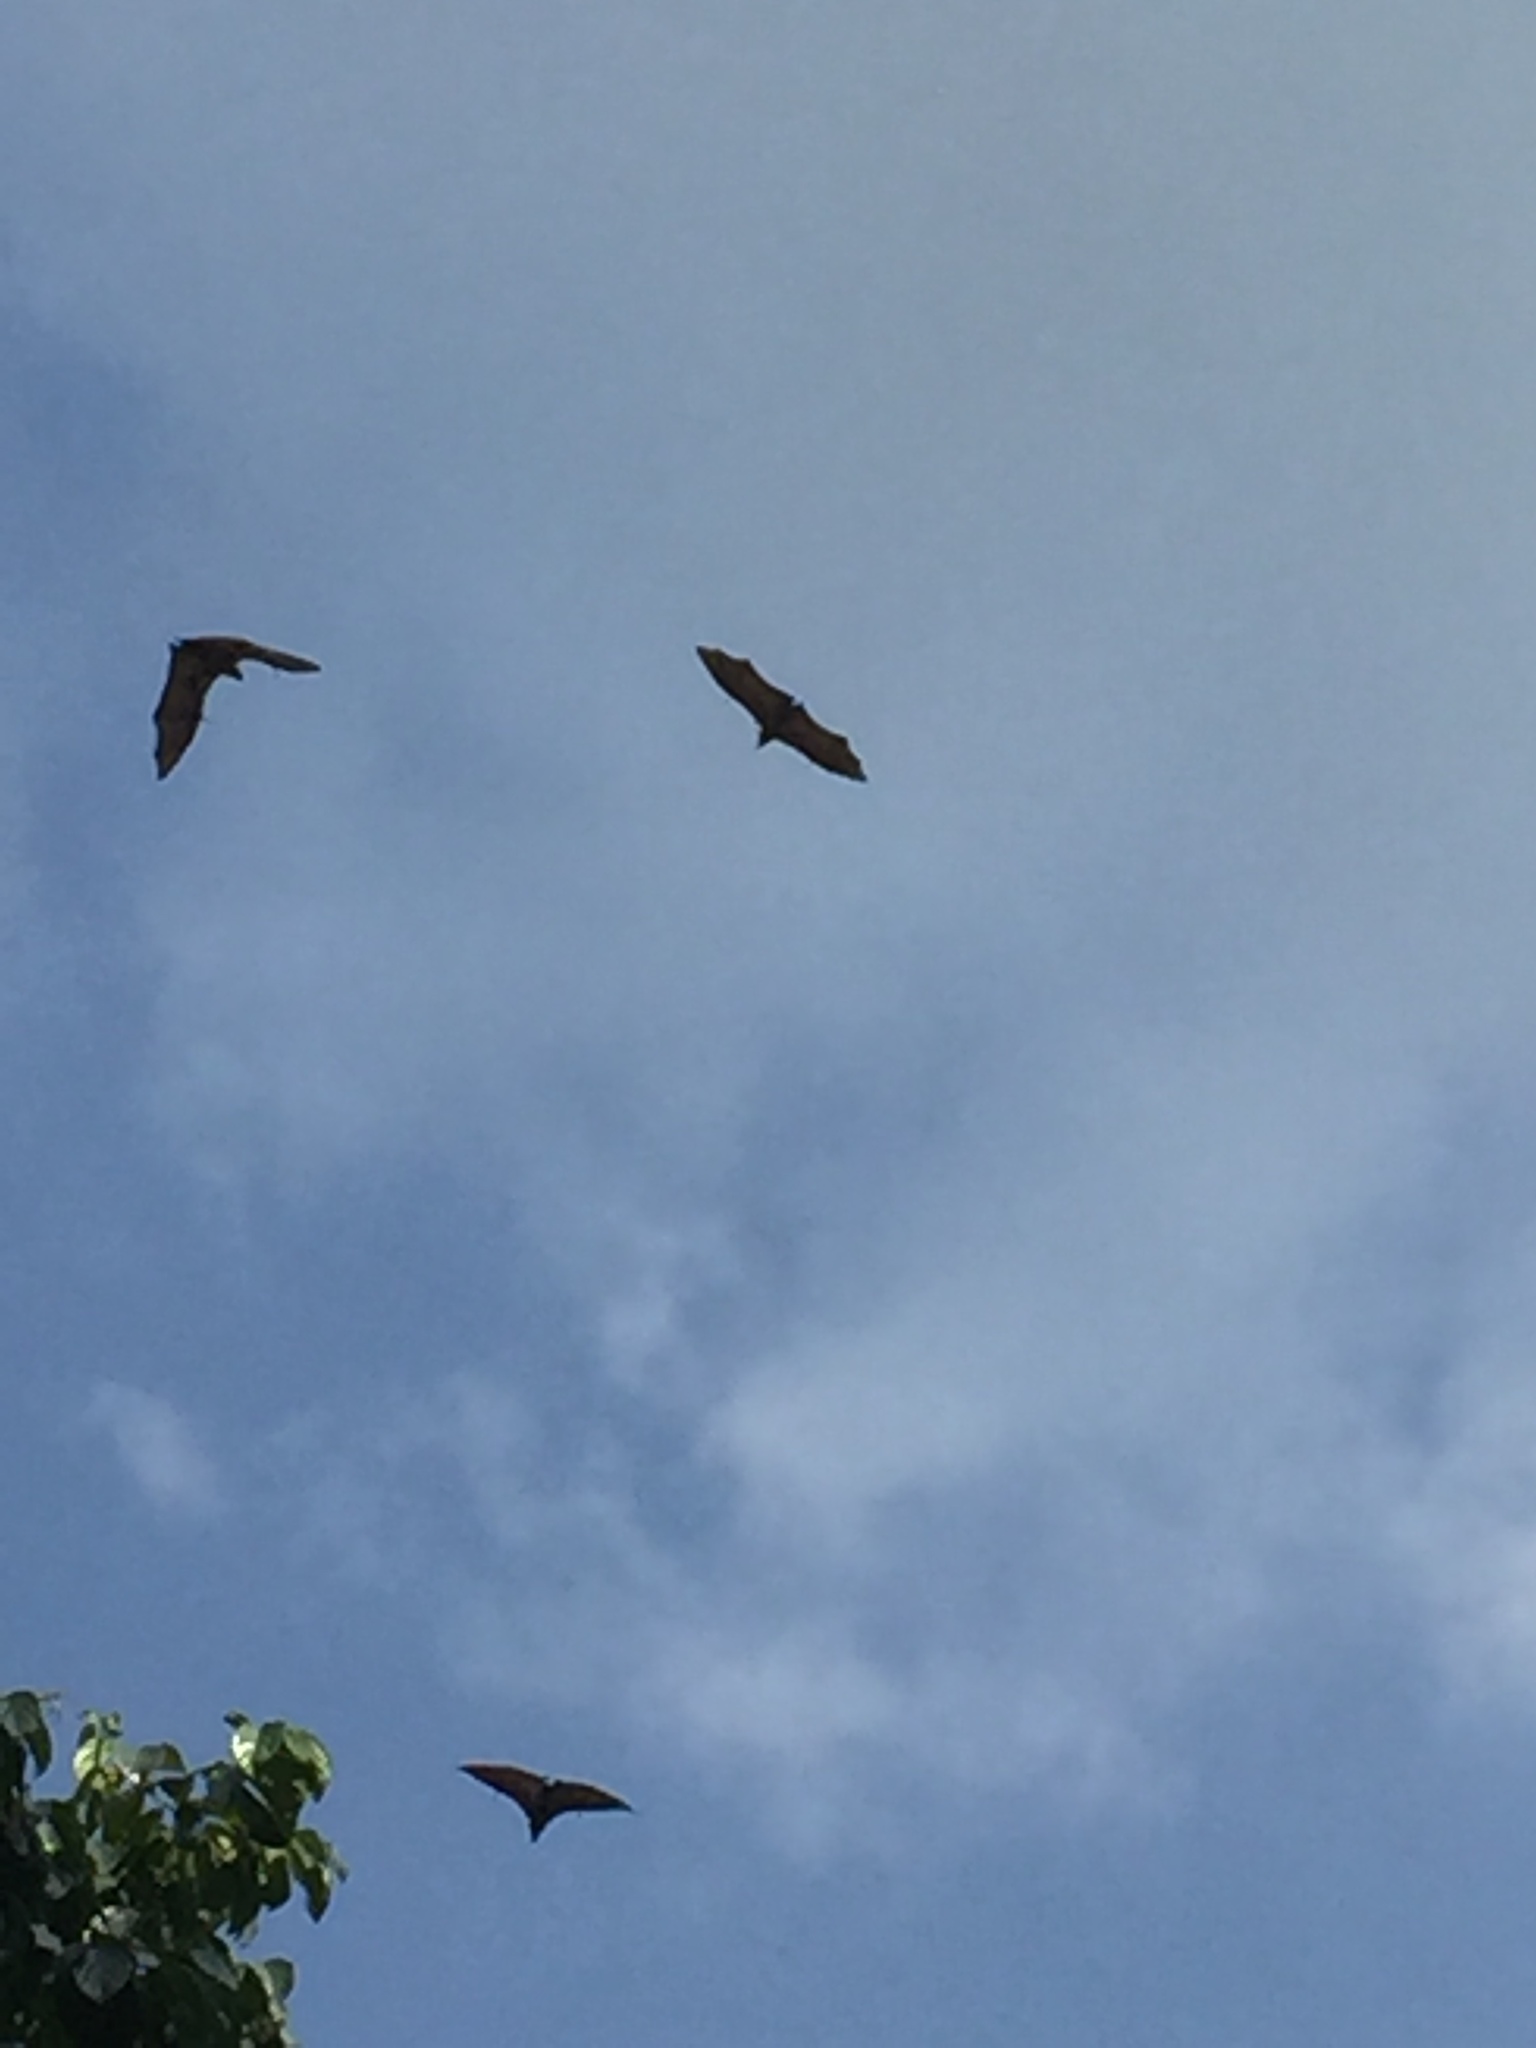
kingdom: Animalia
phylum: Chordata
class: Mammalia
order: Chiroptera
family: Pteropodidae
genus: Pteropus
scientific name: Pteropus vampyrus
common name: Large flying fox
